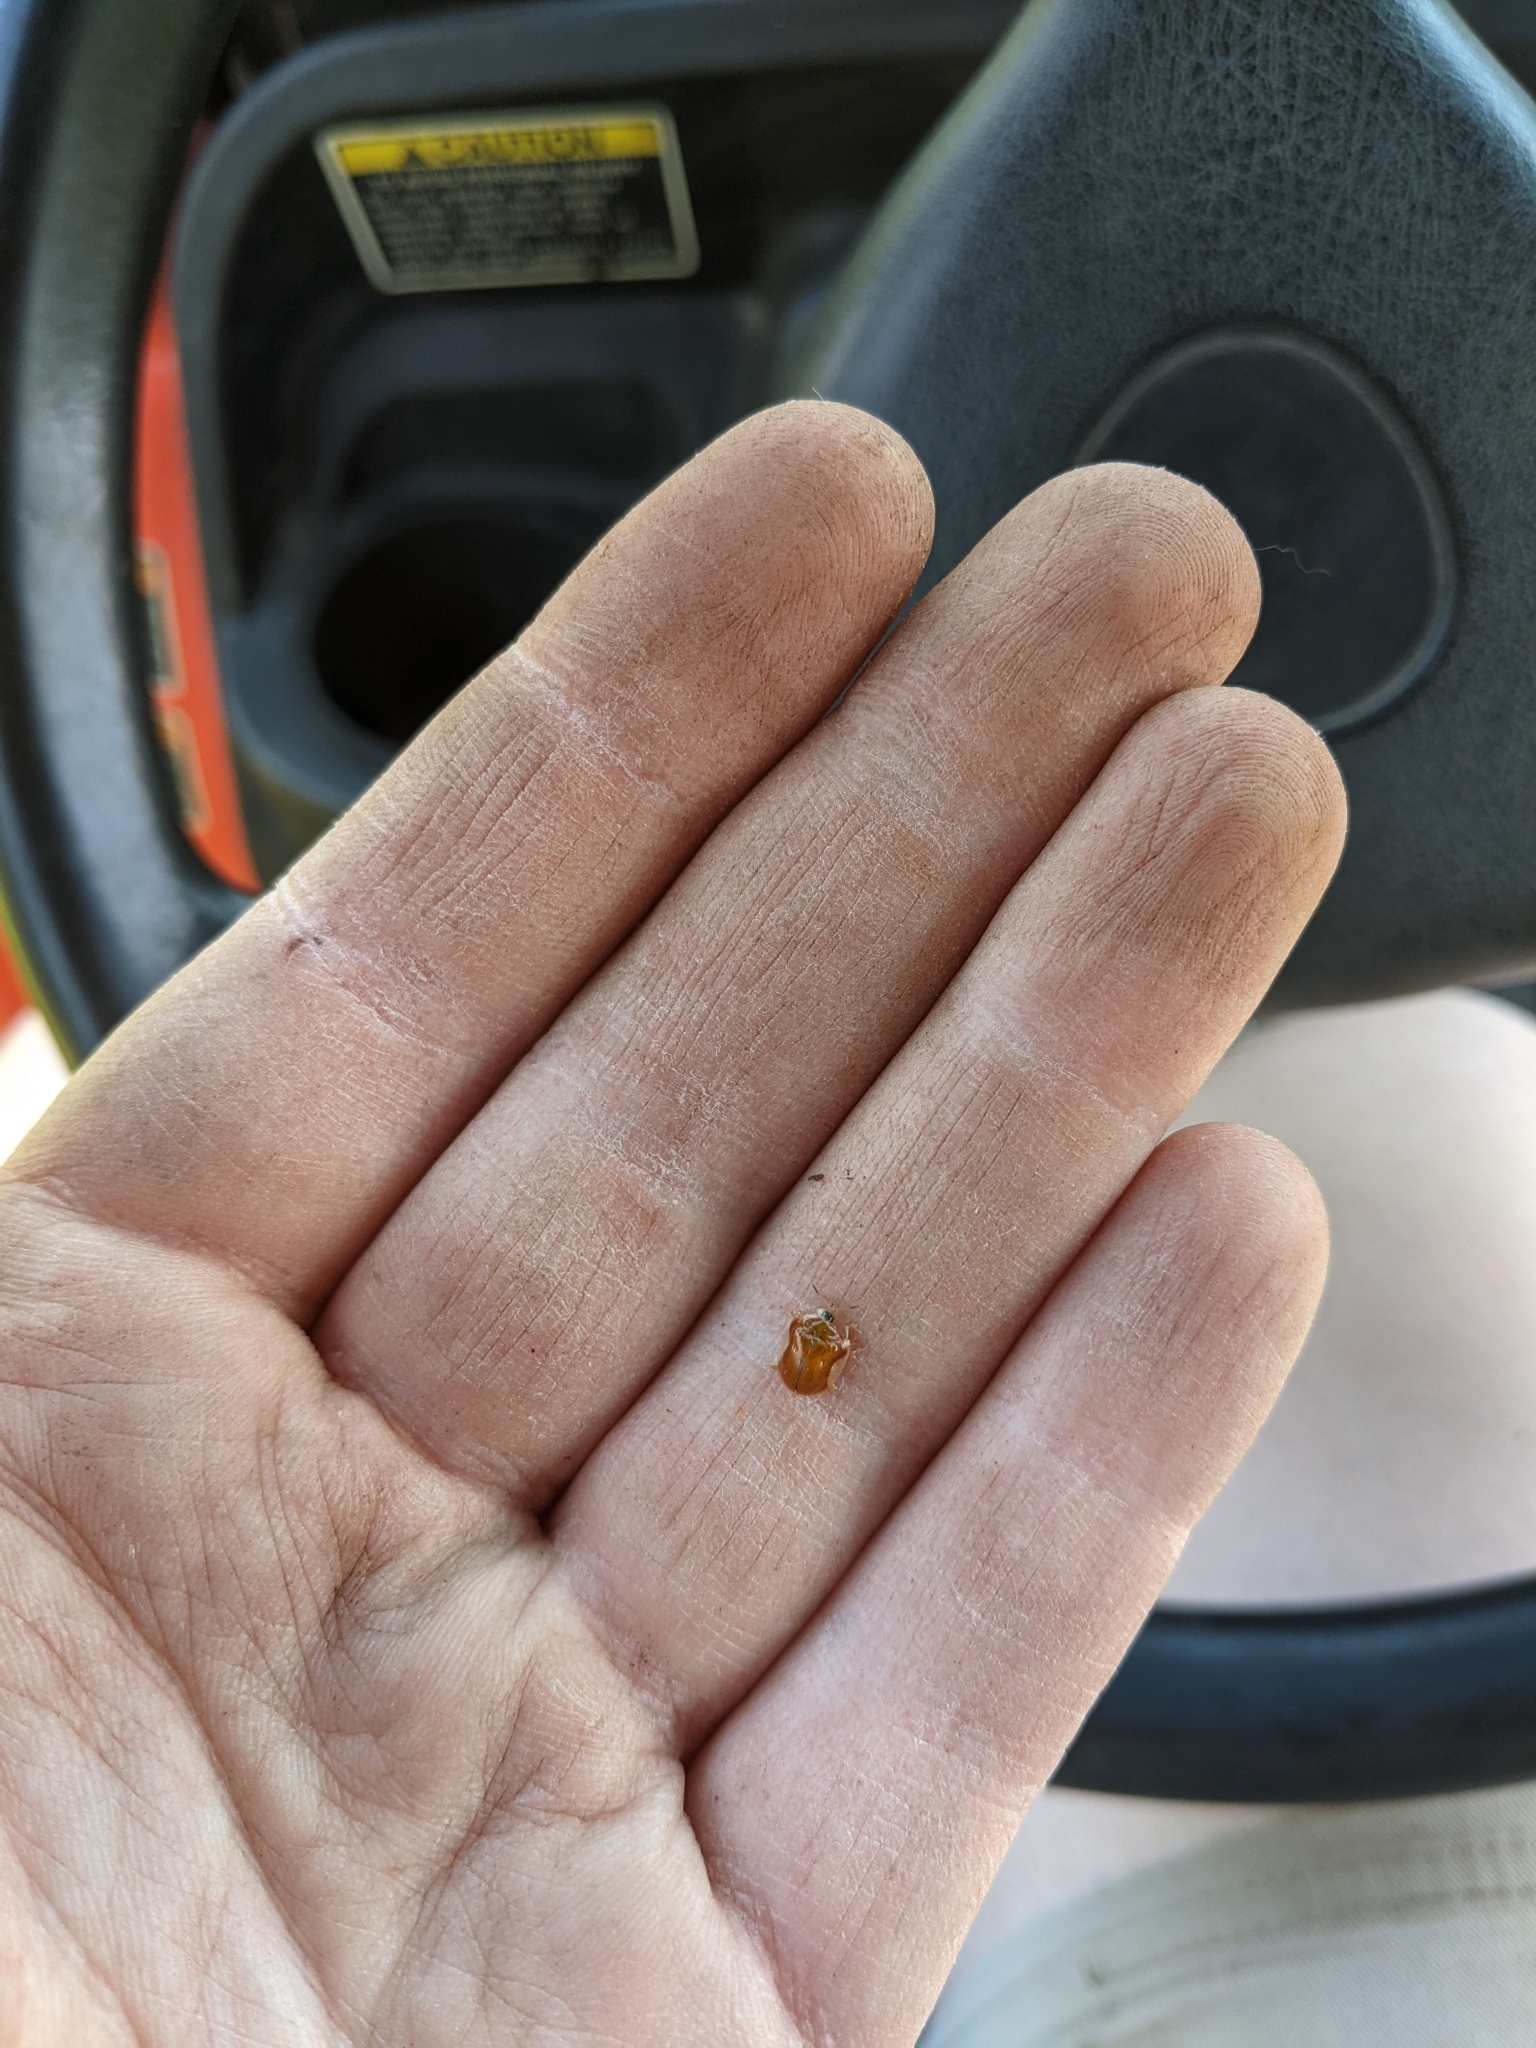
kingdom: Animalia
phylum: Arthropoda
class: Insecta
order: Coleoptera
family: Chrysomelidae
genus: Charidotella
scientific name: Charidotella purpurata
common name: Small orange tortoise beetle
